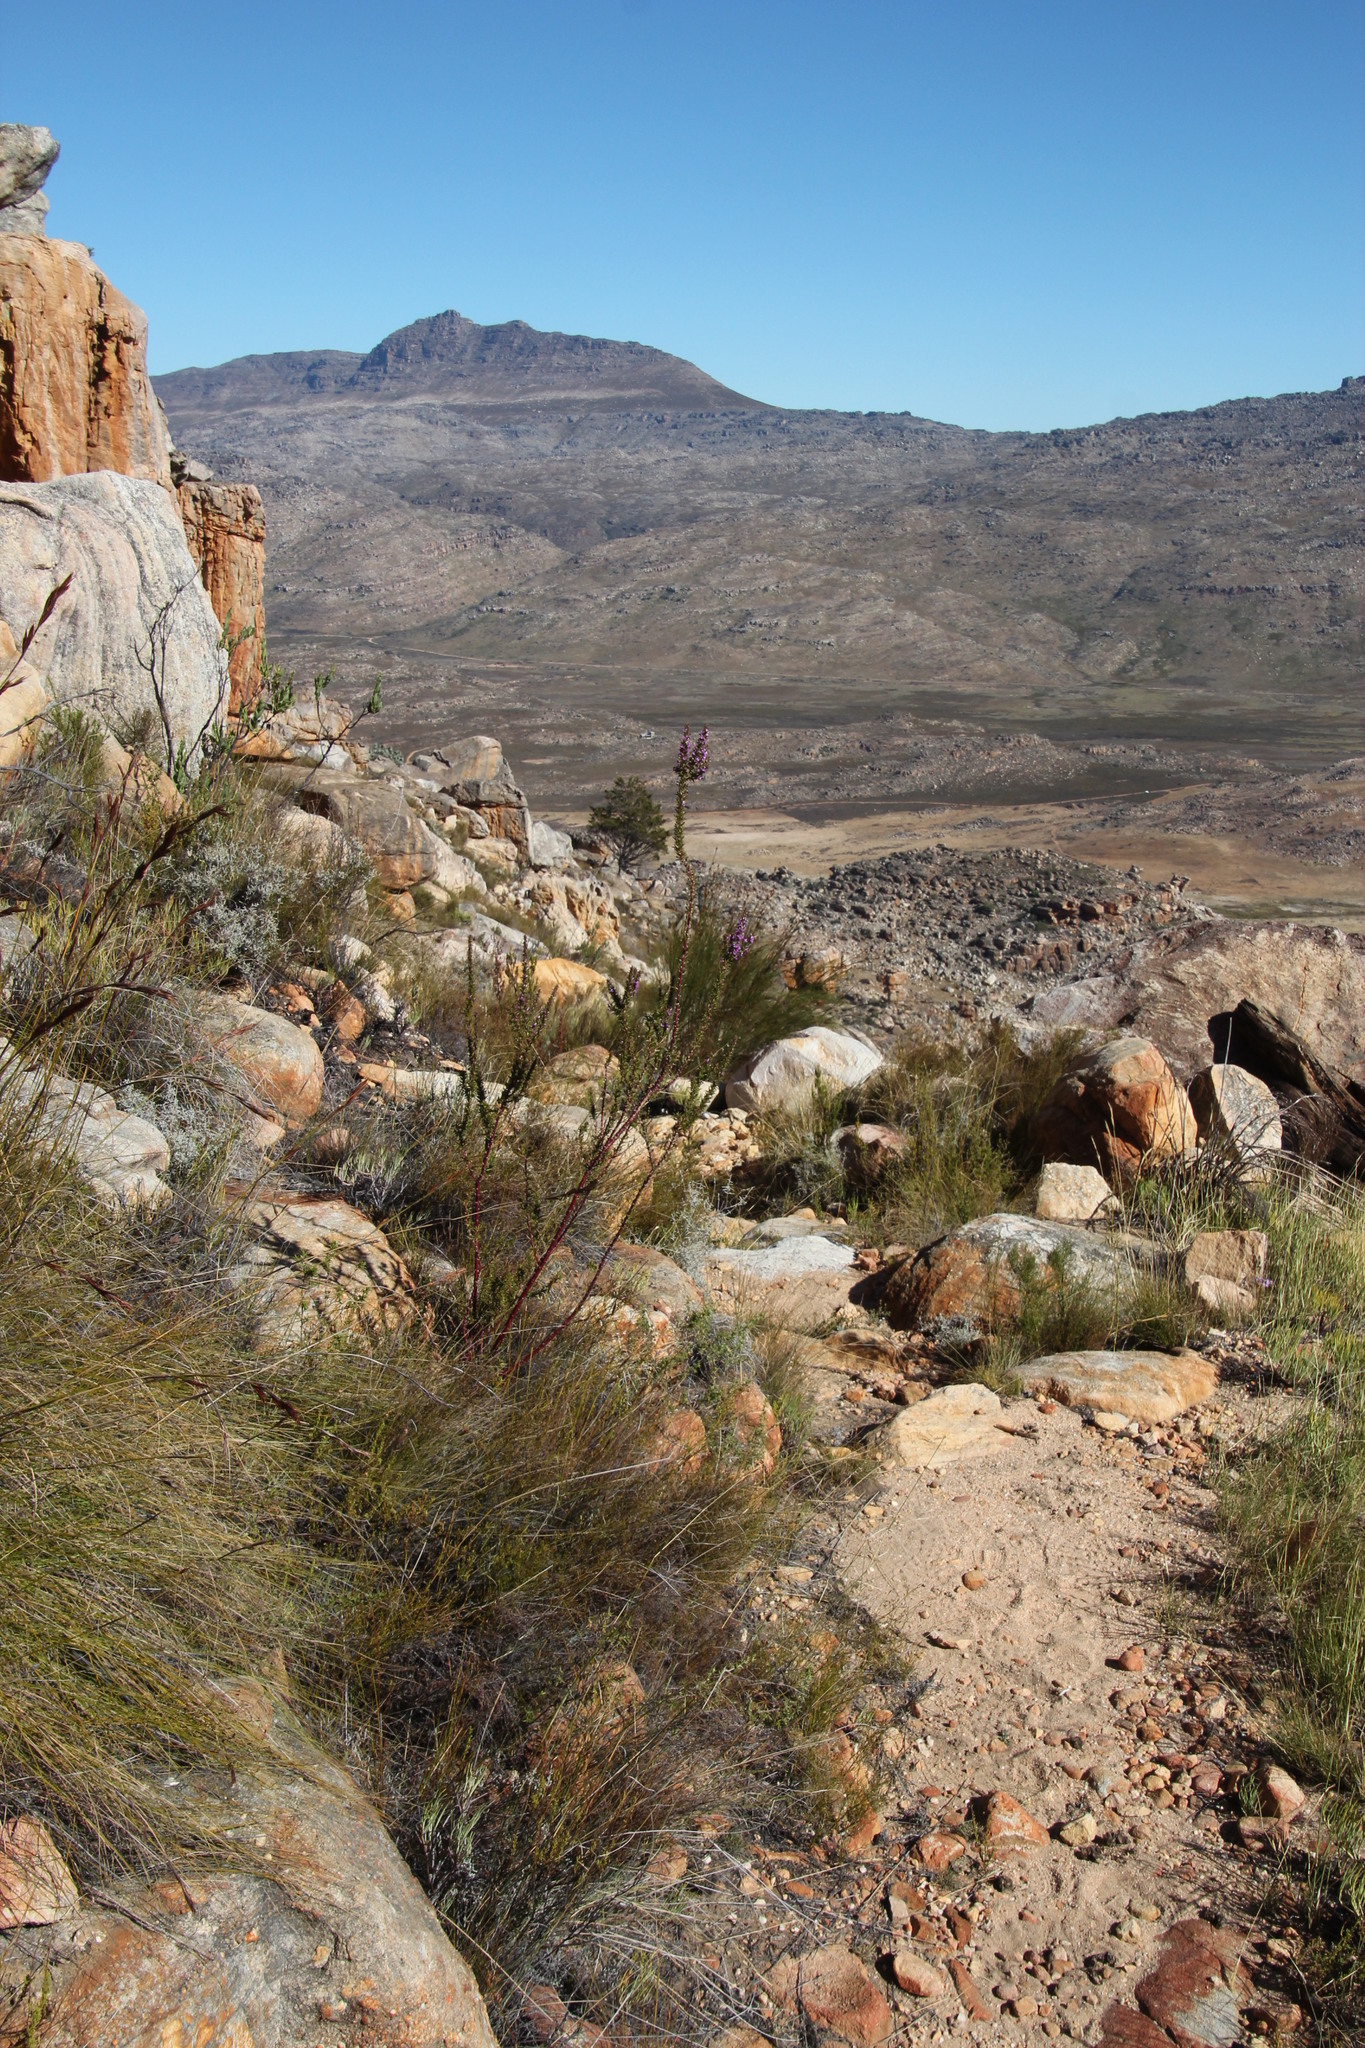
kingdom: Plantae
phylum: Tracheophyta
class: Magnoliopsida
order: Fabales
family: Polygalaceae
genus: Muraltia
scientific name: Muraltia heisteria
